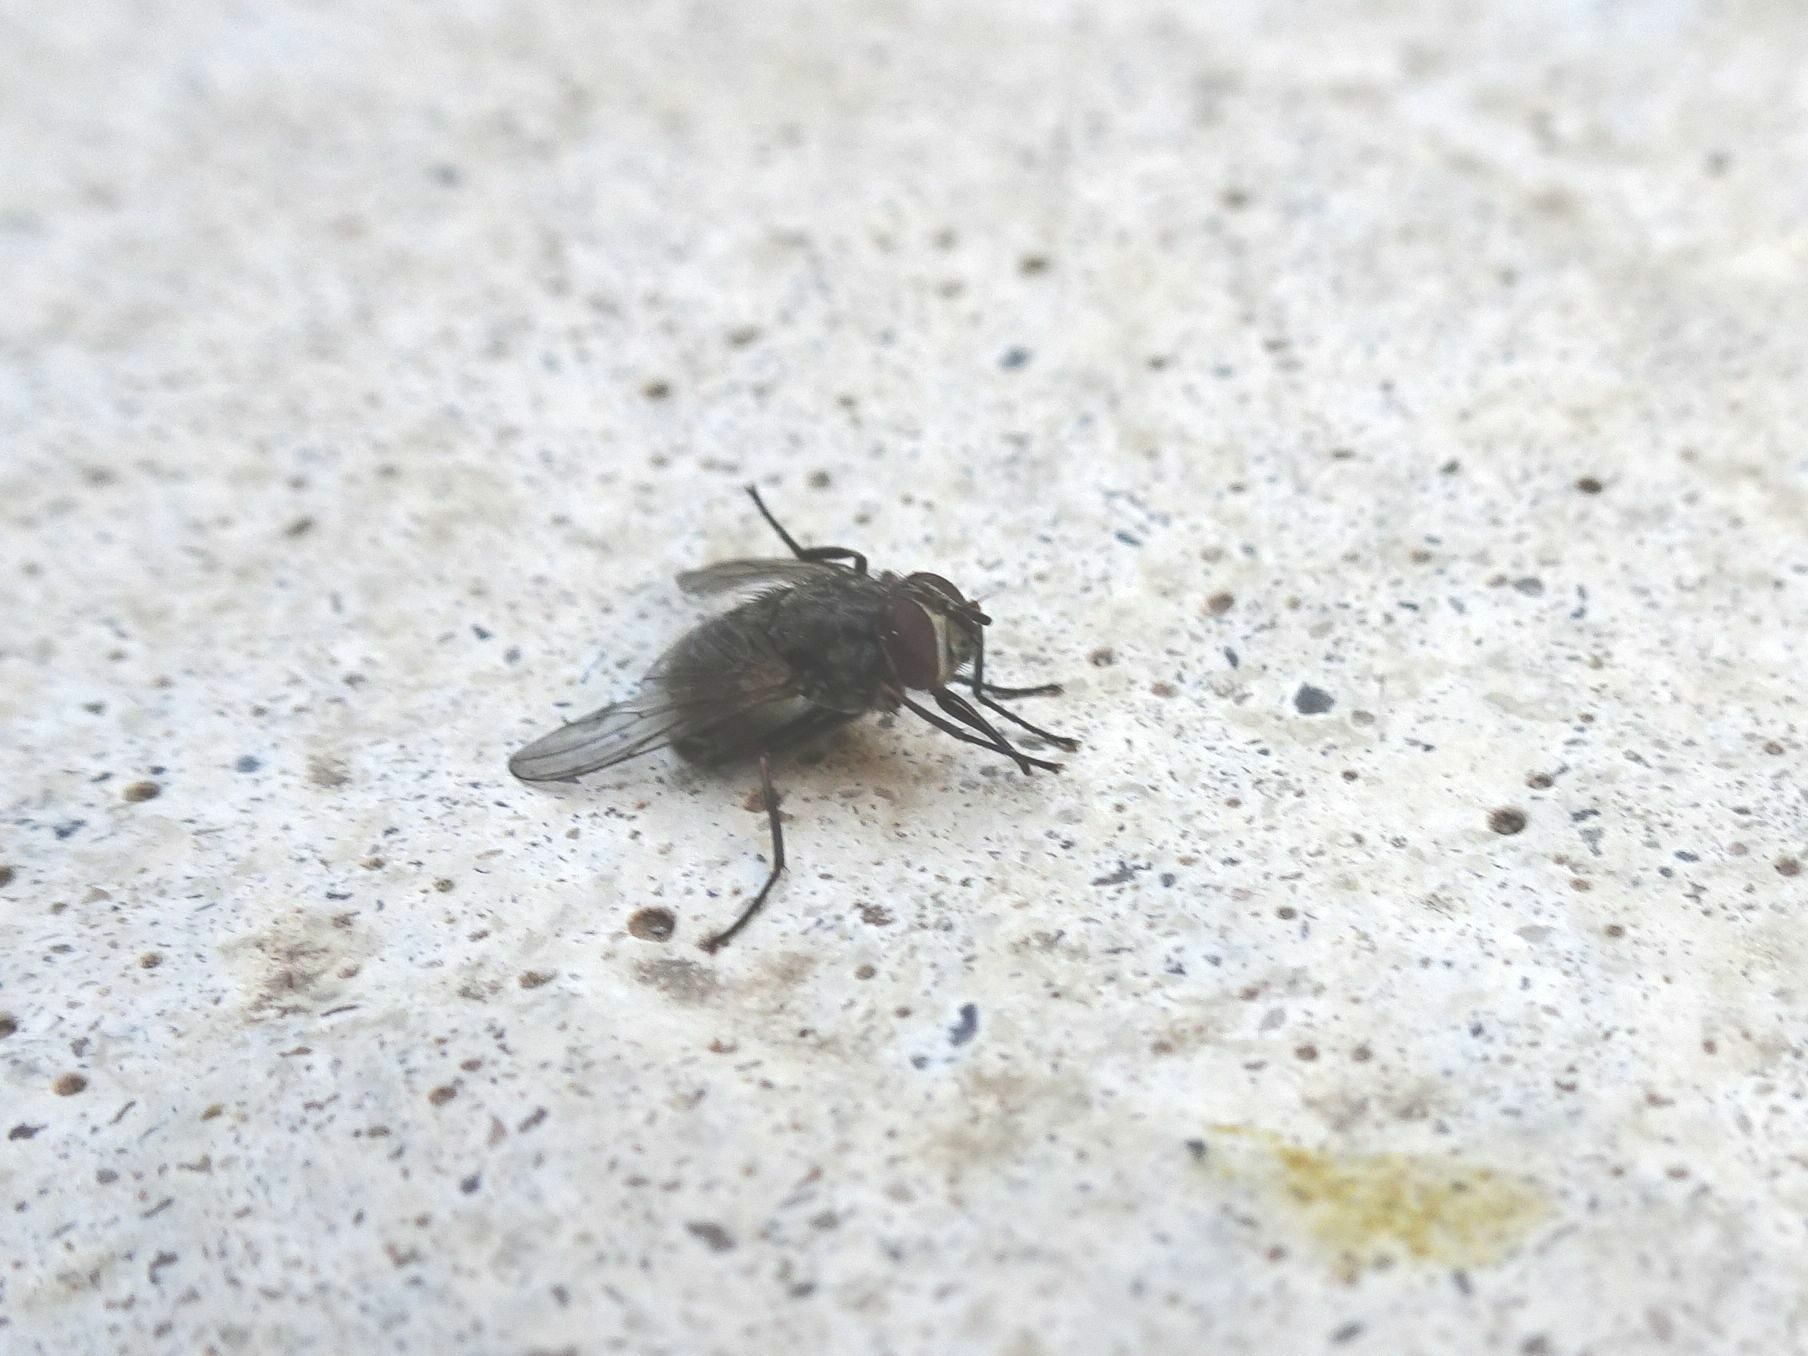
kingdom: Animalia
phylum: Arthropoda
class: Insecta
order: Diptera
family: Muscidae
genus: Stomoxys
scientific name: Stomoxys calcitrans
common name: Stable fly
